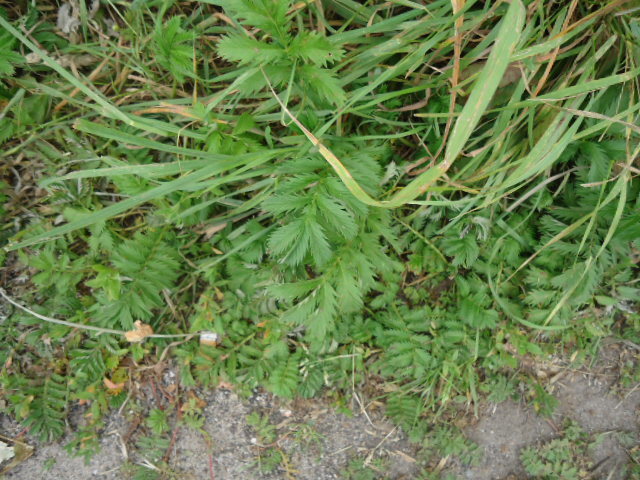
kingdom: Plantae
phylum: Tracheophyta
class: Magnoliopsida
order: Rosales
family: Rosaceae
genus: Argentina
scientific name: Argentina anserina
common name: Common silverweed
